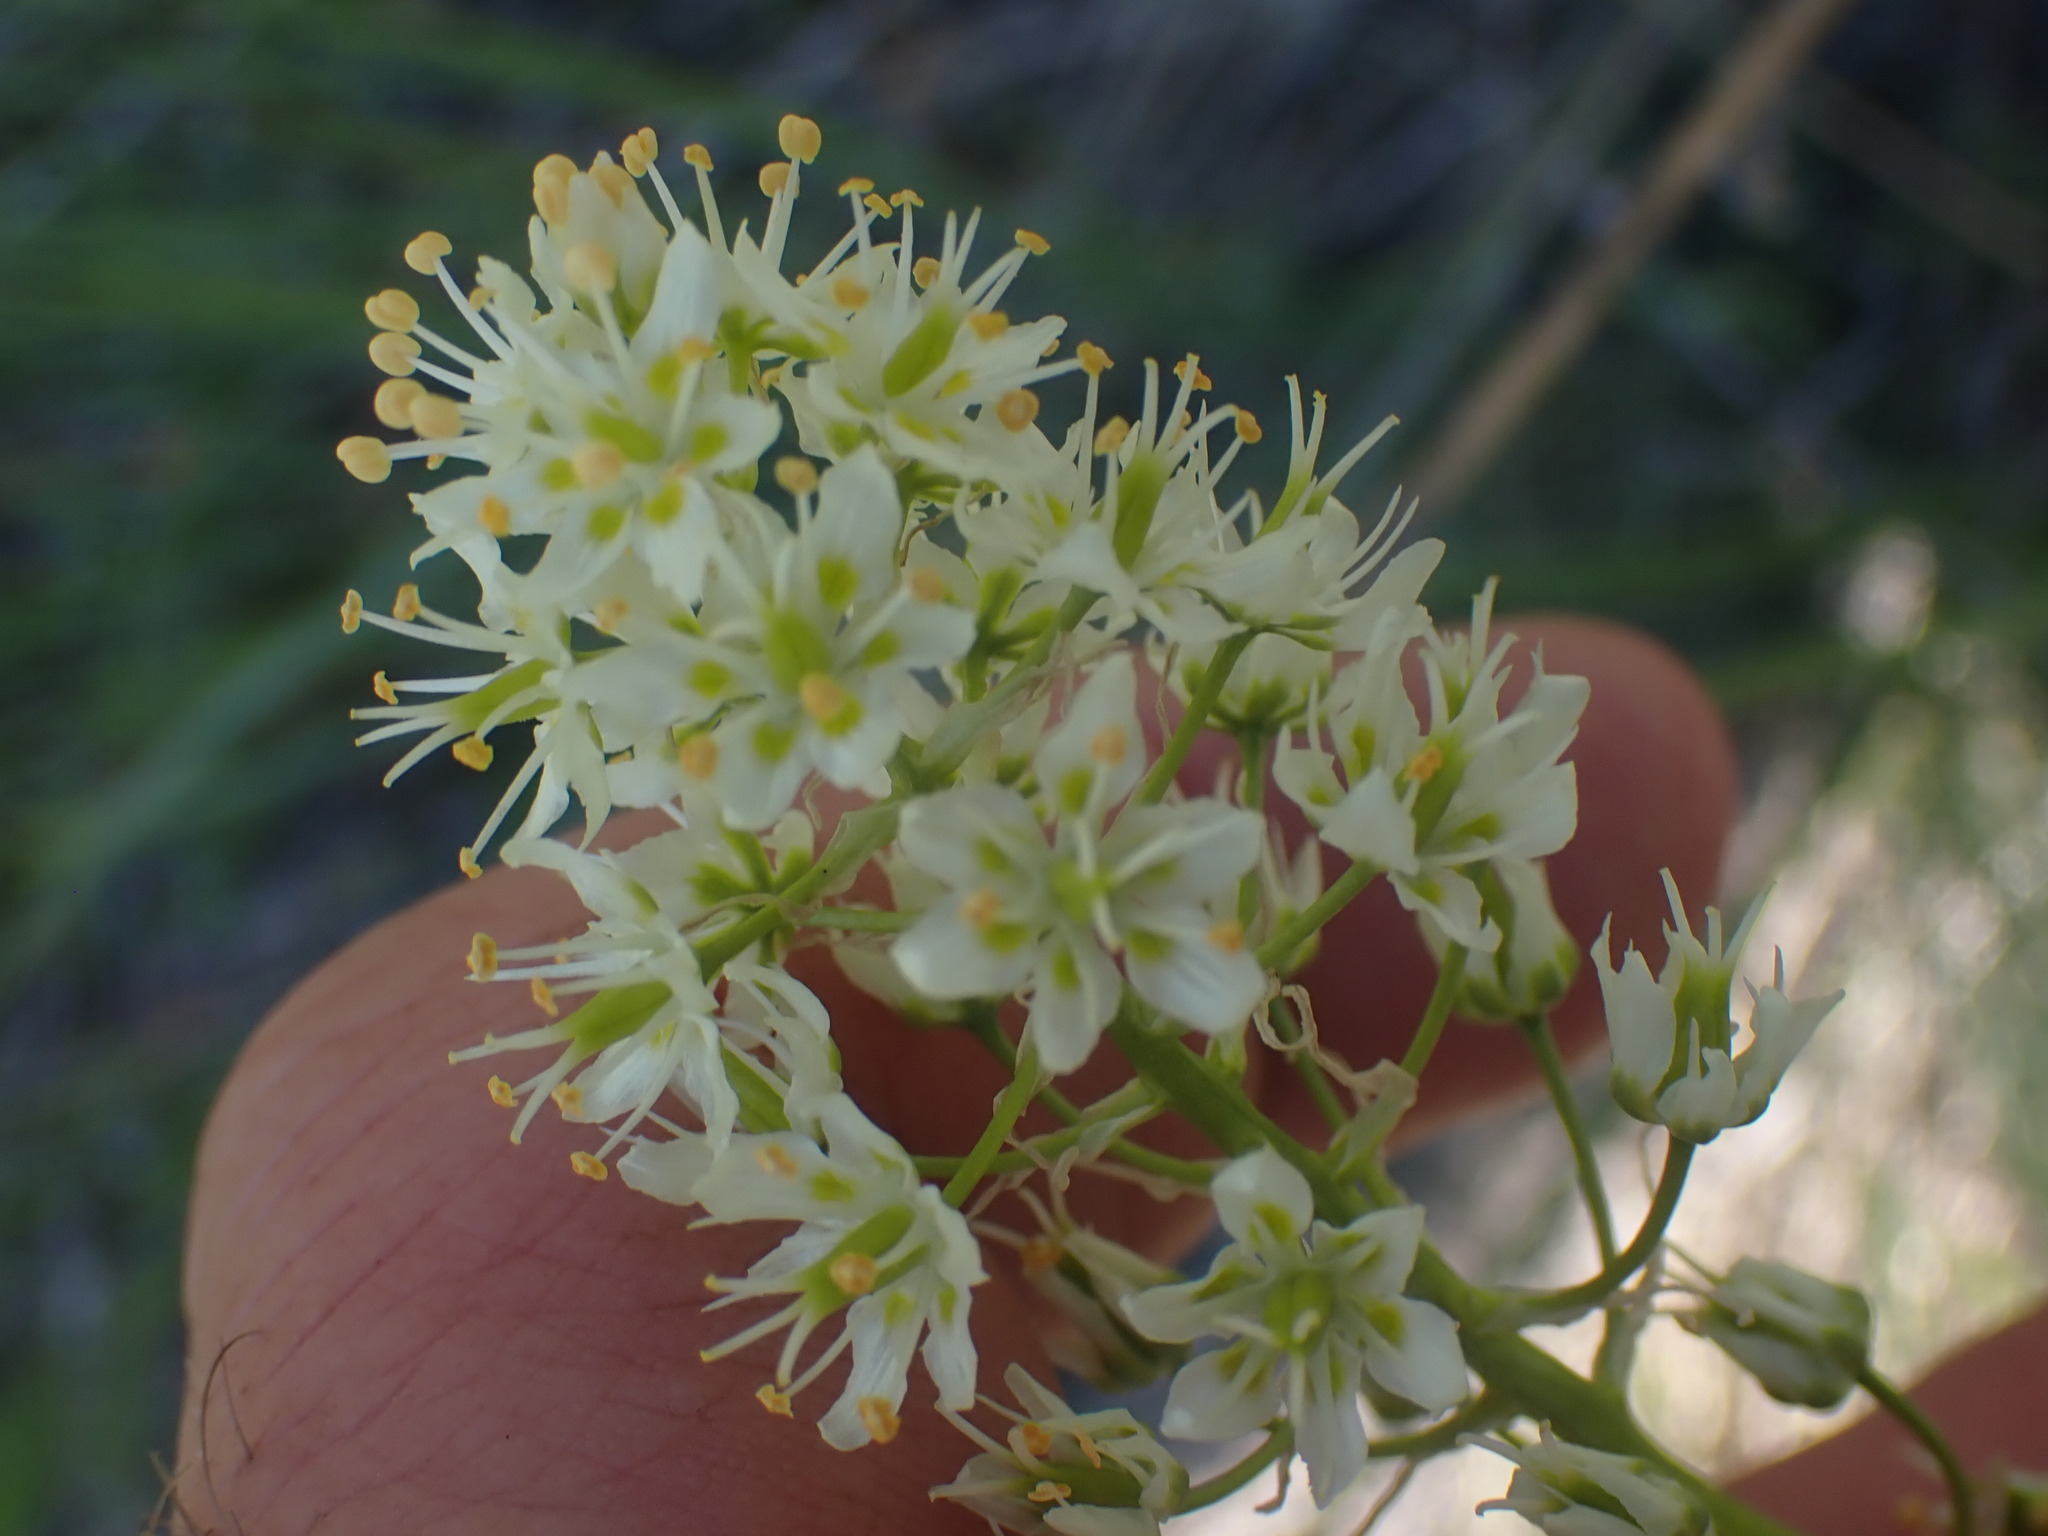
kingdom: Plantae
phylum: Tracheophyta
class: Liliopsida
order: Liliales
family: Melanthiaceae
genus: Toxicoscordion
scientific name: Toxicoscordion venenosum
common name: Meadow death camas
